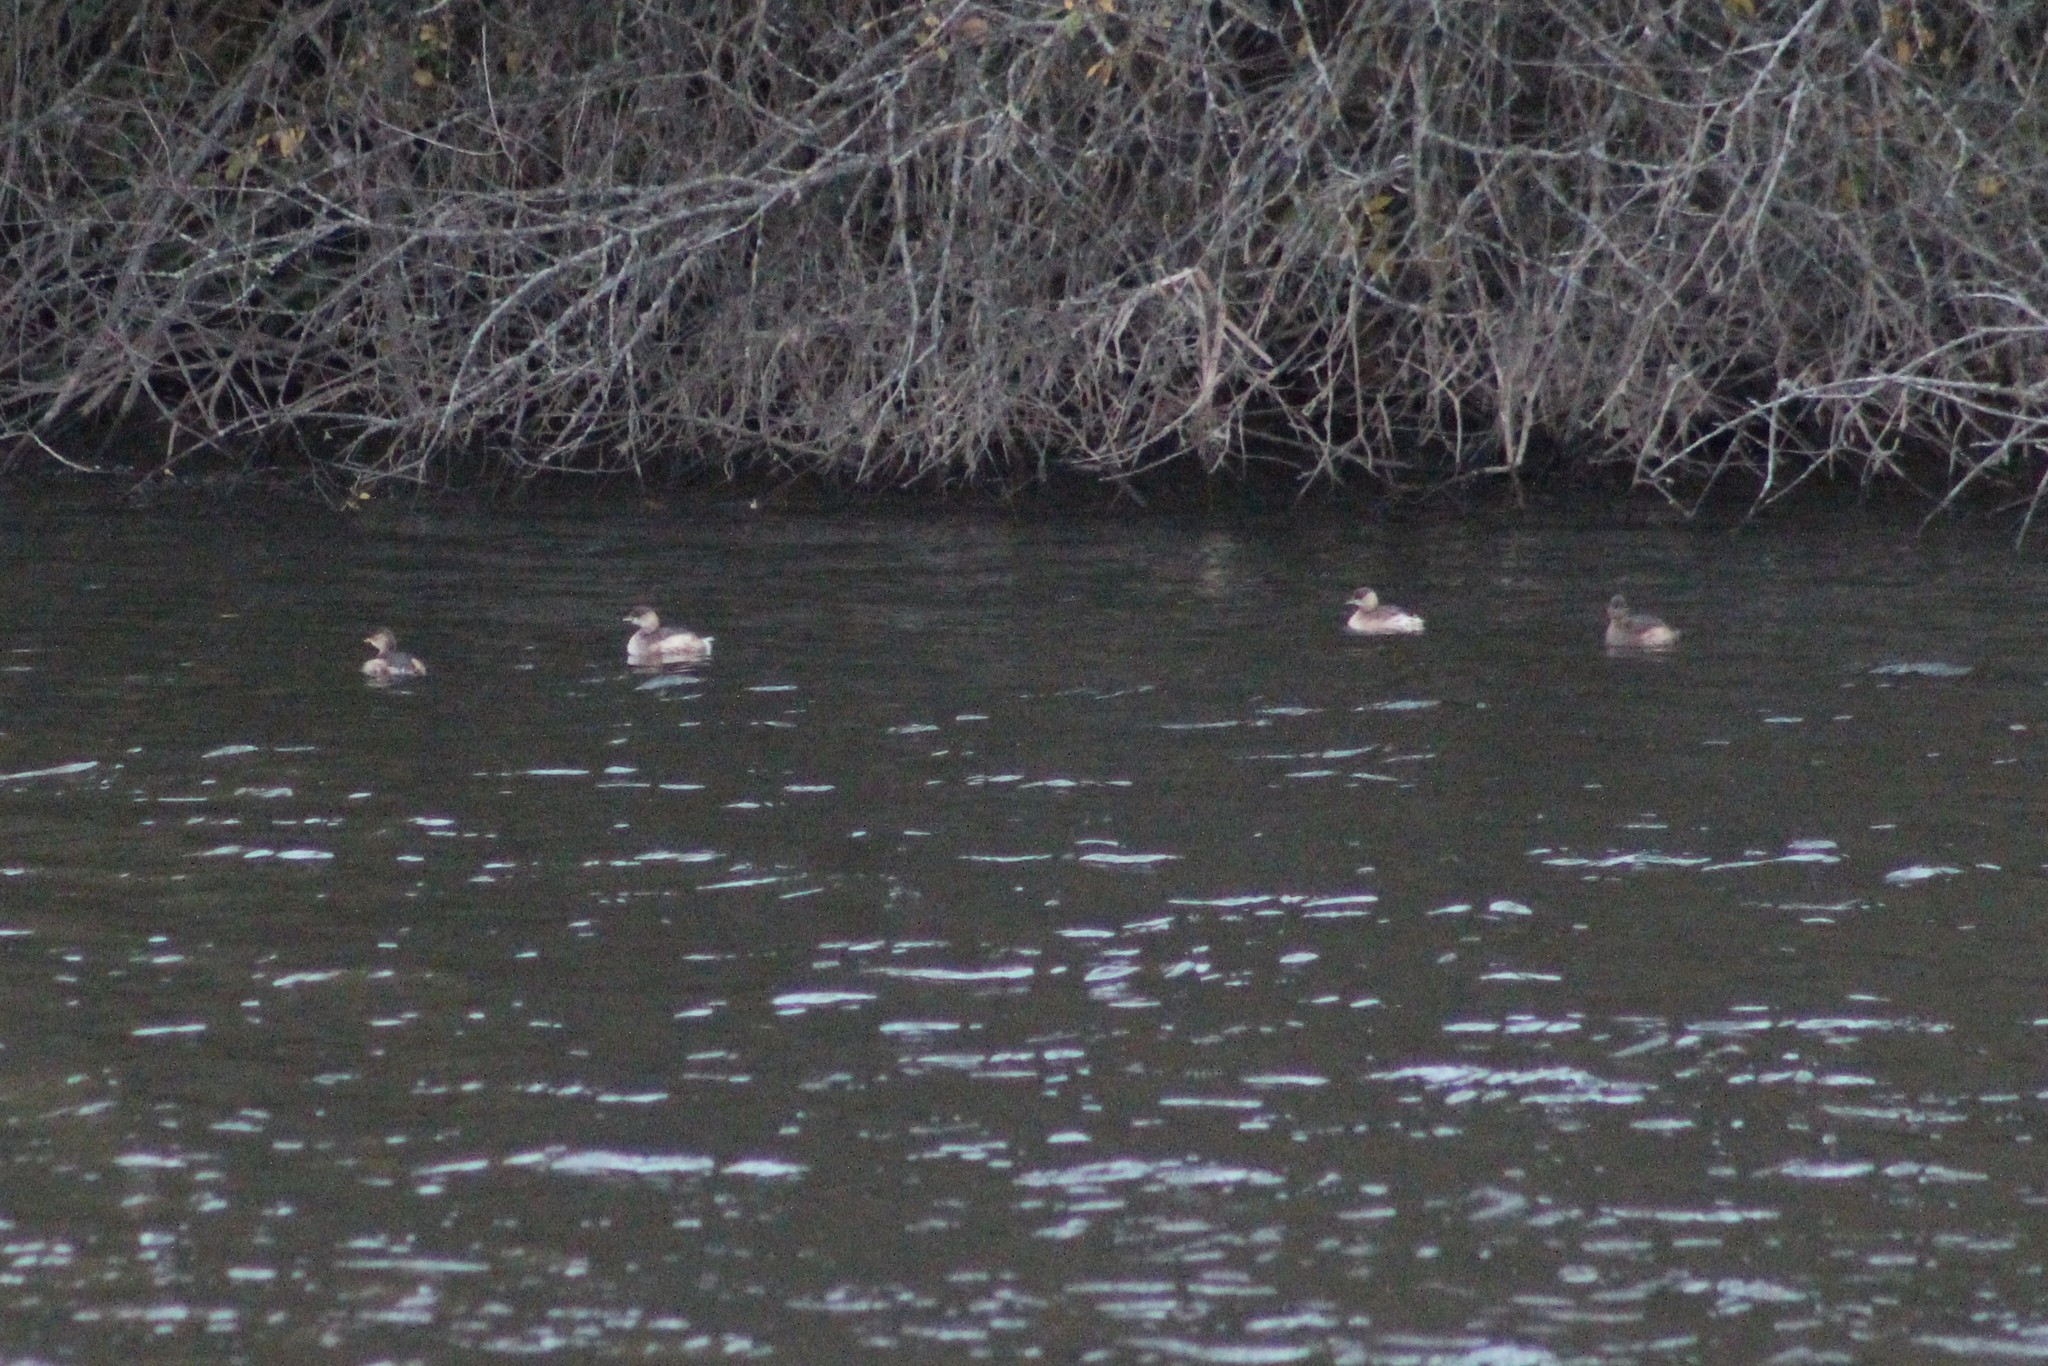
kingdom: Animalia
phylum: Chordata
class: Aves
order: Podicipediformes
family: Podicipedidae
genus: Tachybaptus
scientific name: Tachybaptus ruficollis
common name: Little grebe
